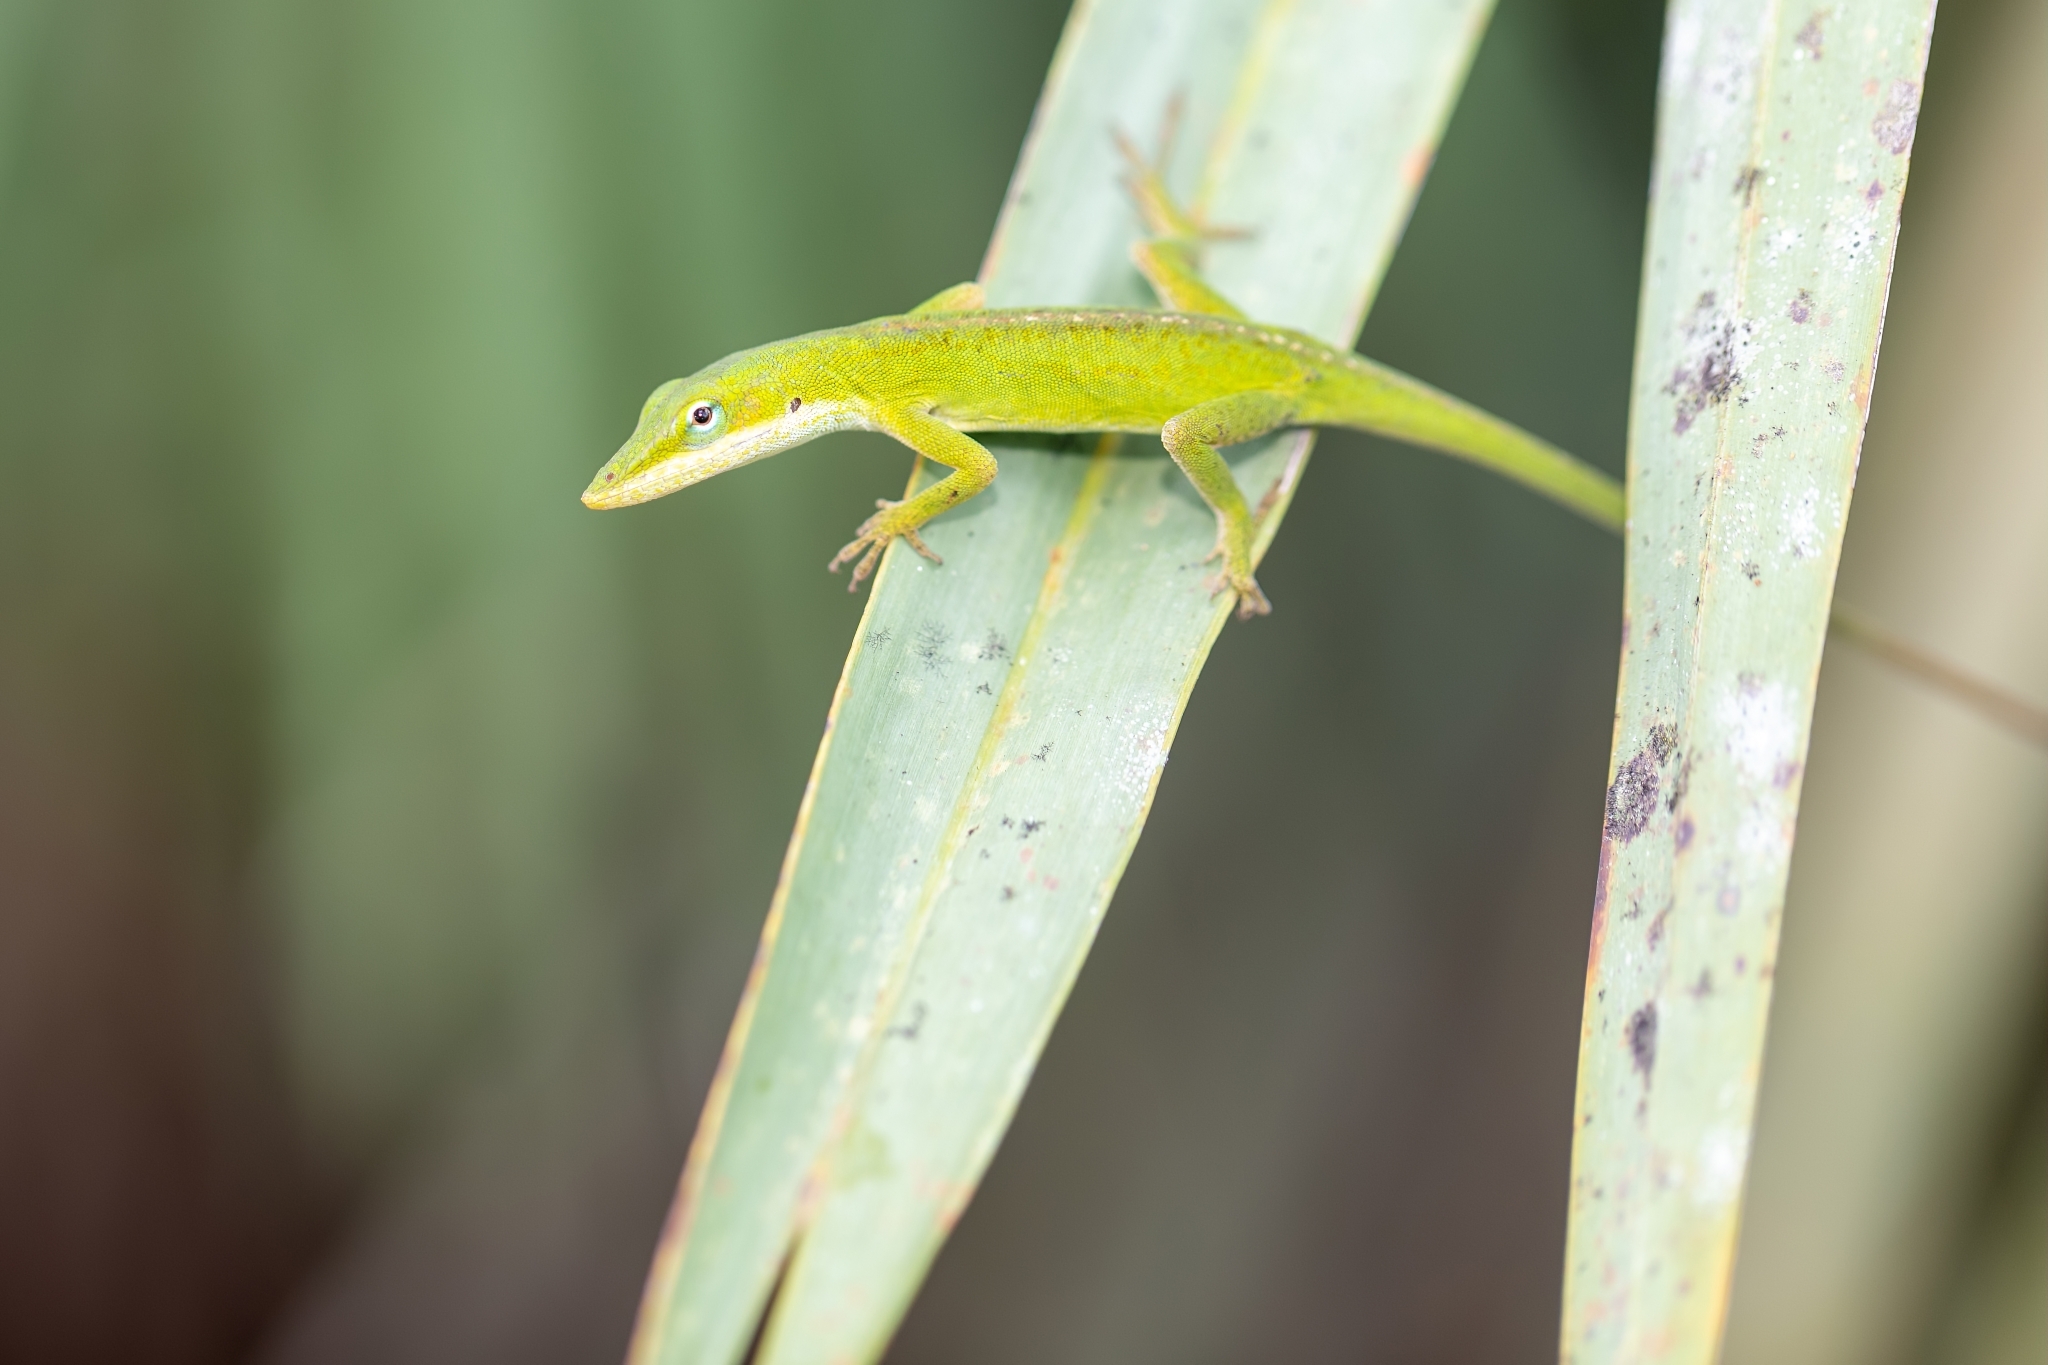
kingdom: Animalia
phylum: Chordata
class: Squamata
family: Dactyloidae
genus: Anolis
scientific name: Anolis carolinensis
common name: Green anole
